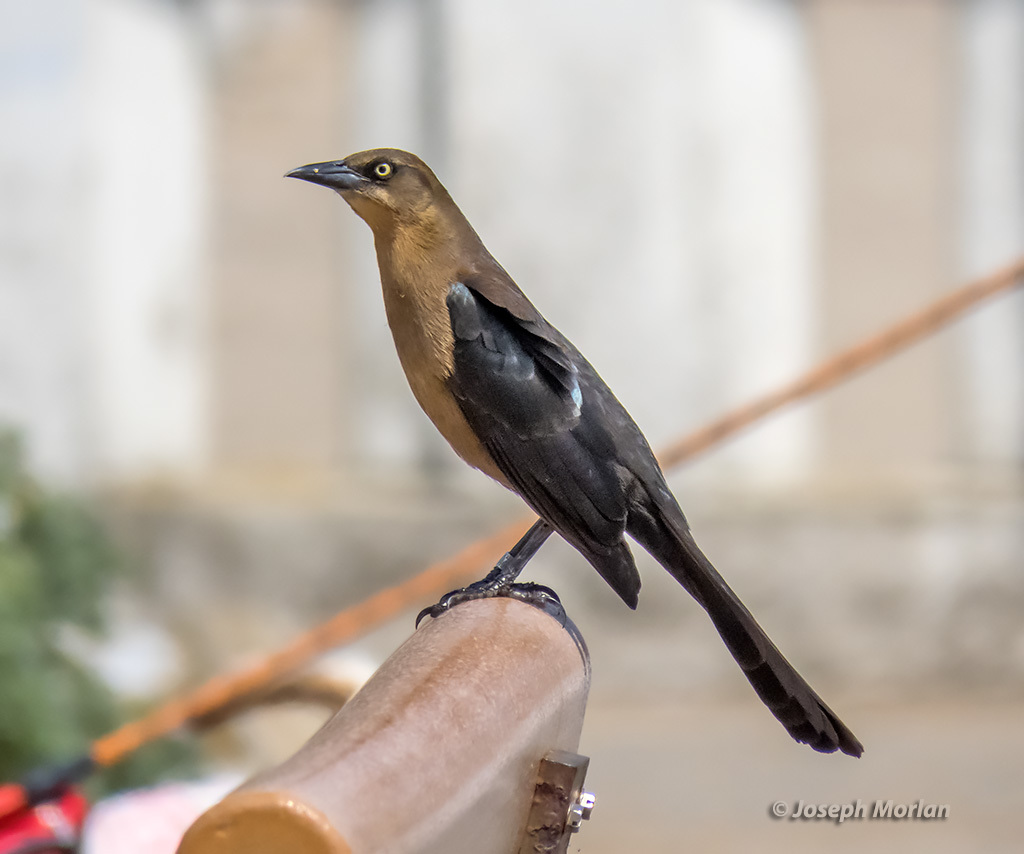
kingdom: Animalia
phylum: Chordata
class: Aves
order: Passeriformes
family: Icteridae
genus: Quiscalus
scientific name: Quiscalus mexicanus
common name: Great-tailed grackle
